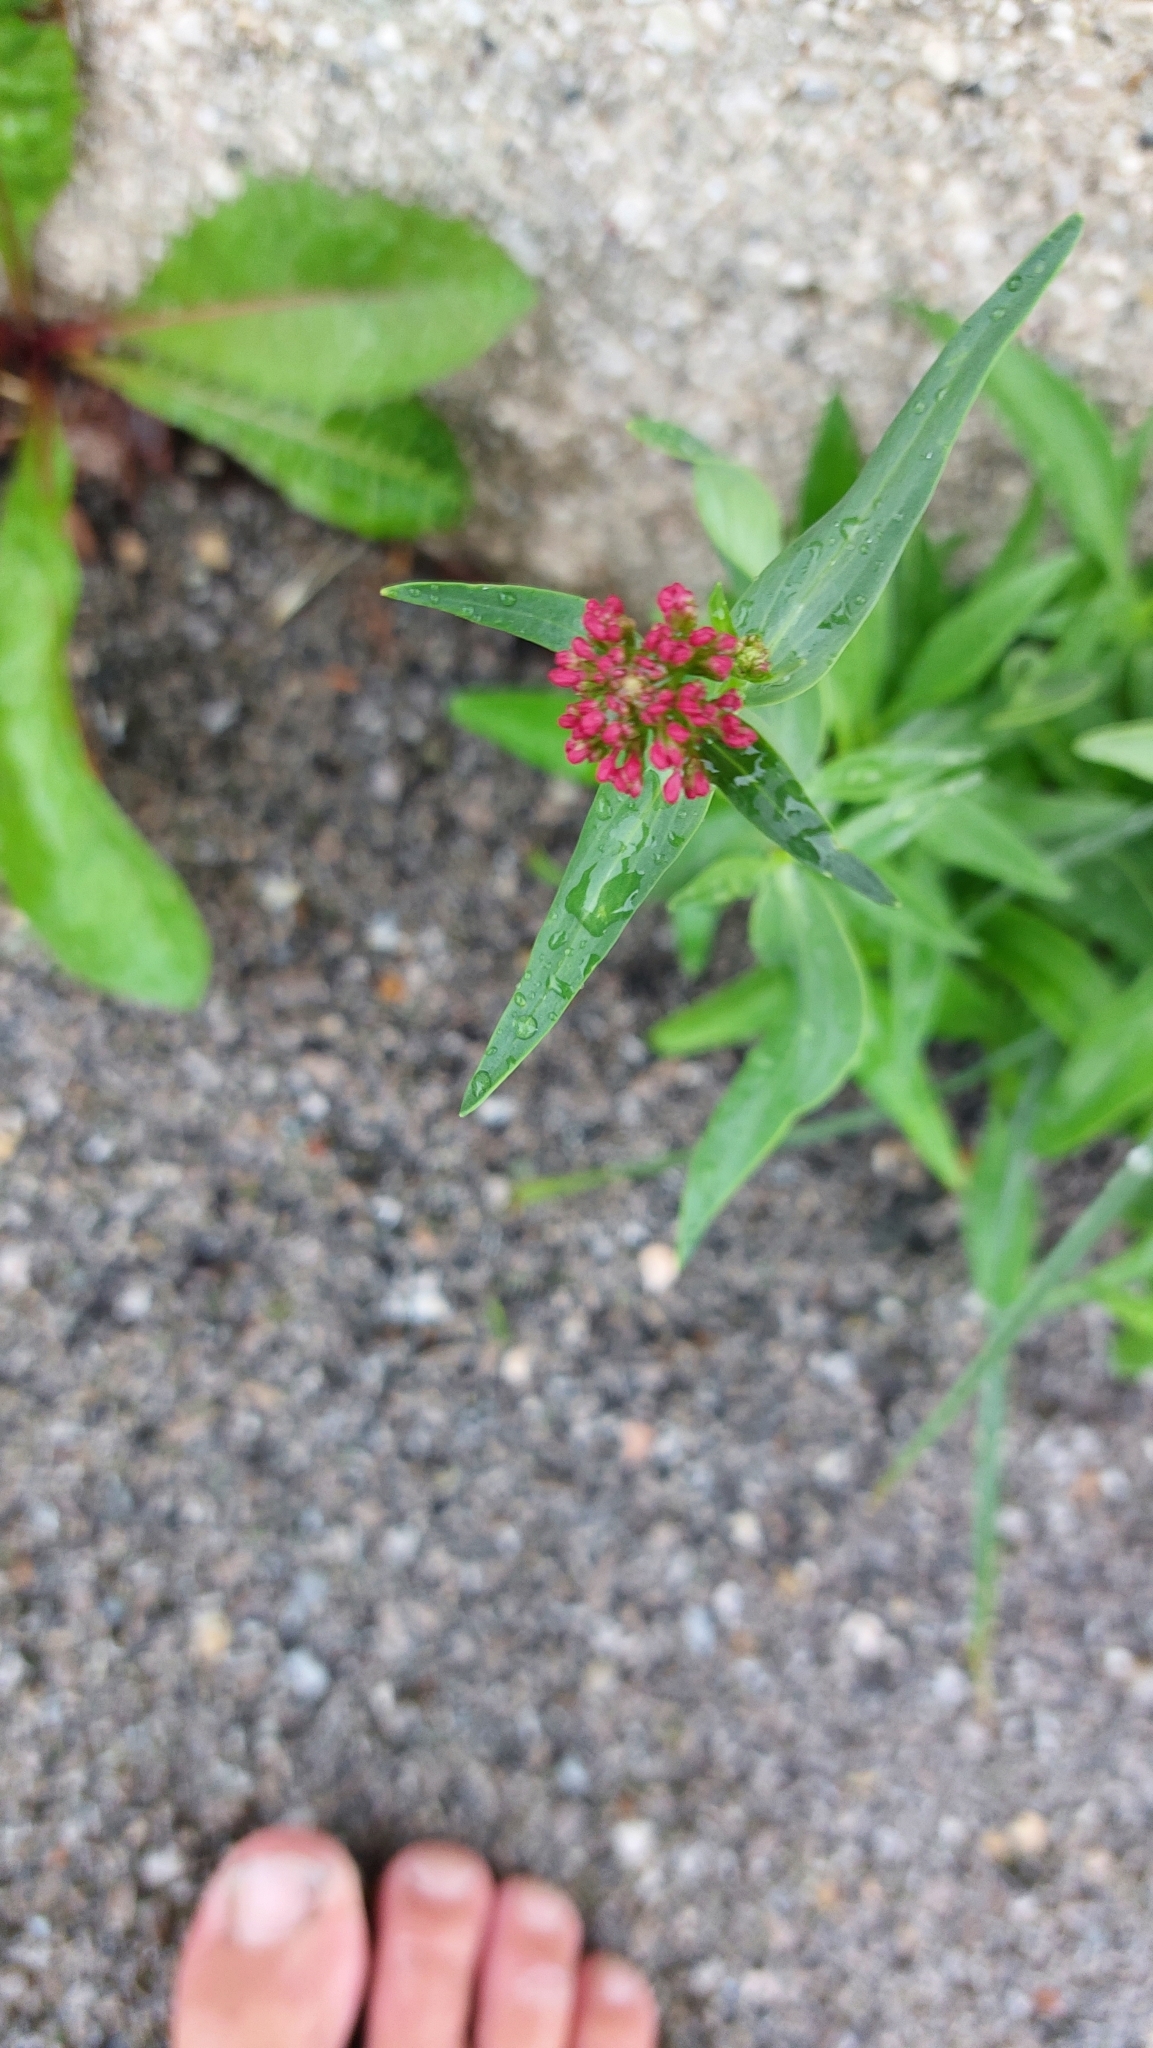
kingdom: Plantae
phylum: Tracheophyta
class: Magnoliopsida
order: Dipsacales
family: Caprifoliaceae
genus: Centranthus
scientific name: Centranthus ruber
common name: Red valerian
